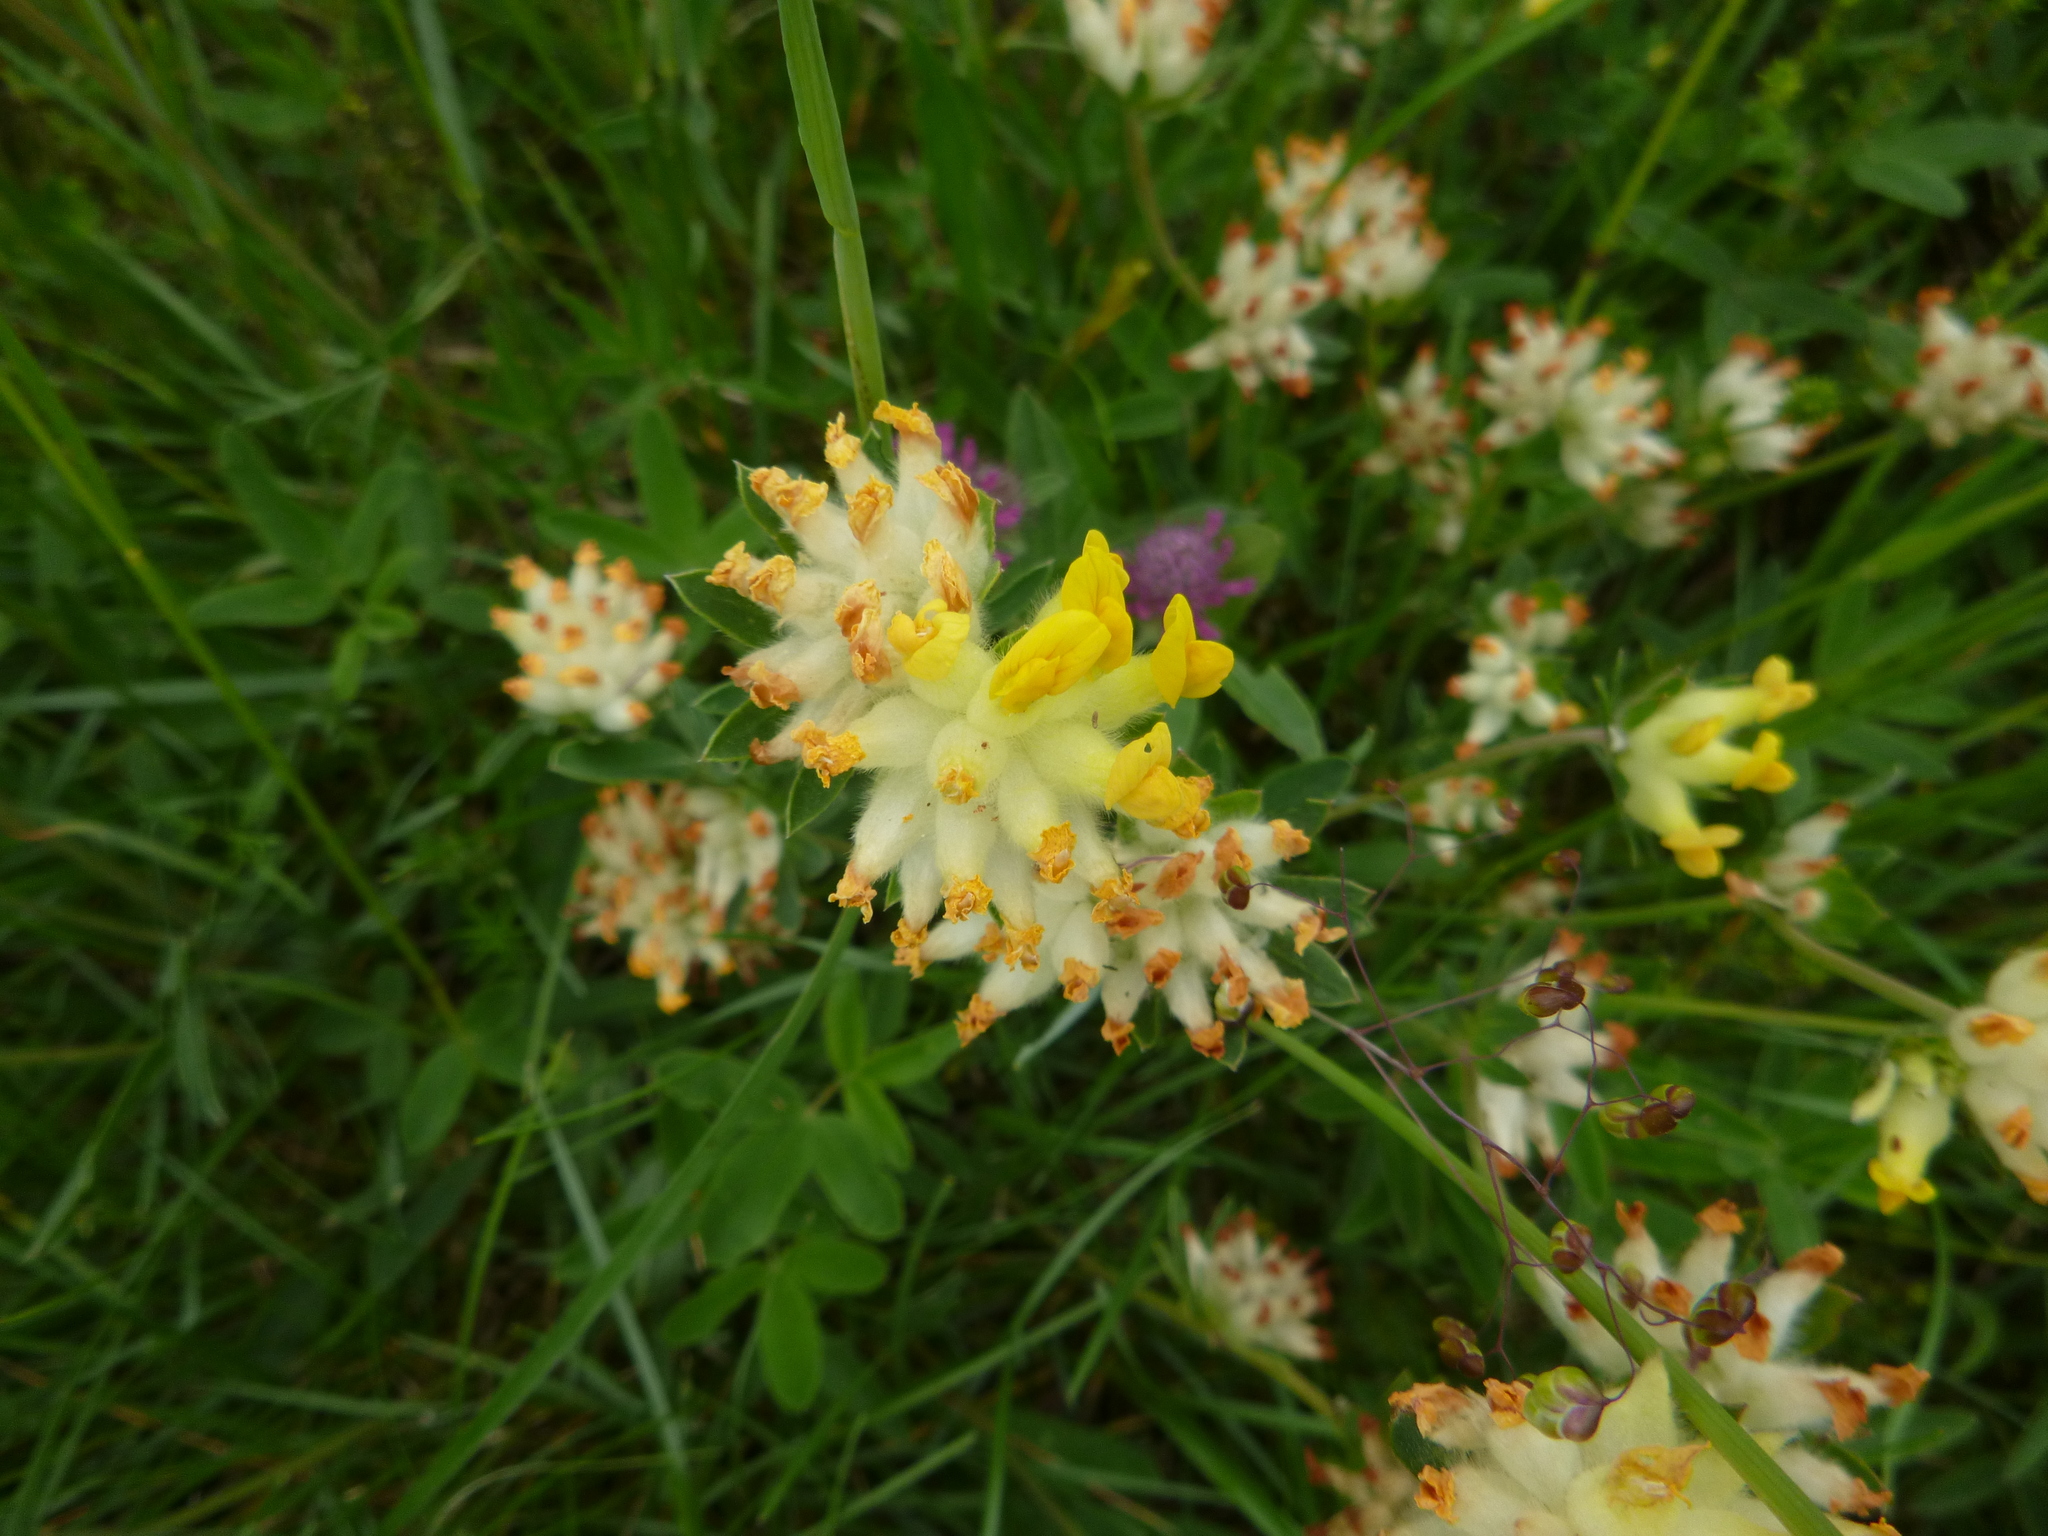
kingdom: Plantae
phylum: Tracheophyta
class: Magnoliopsida
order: Fabales
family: Fabaceae
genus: Anthyllis
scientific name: Anthyllis vulneraria
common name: Kidney vetch
